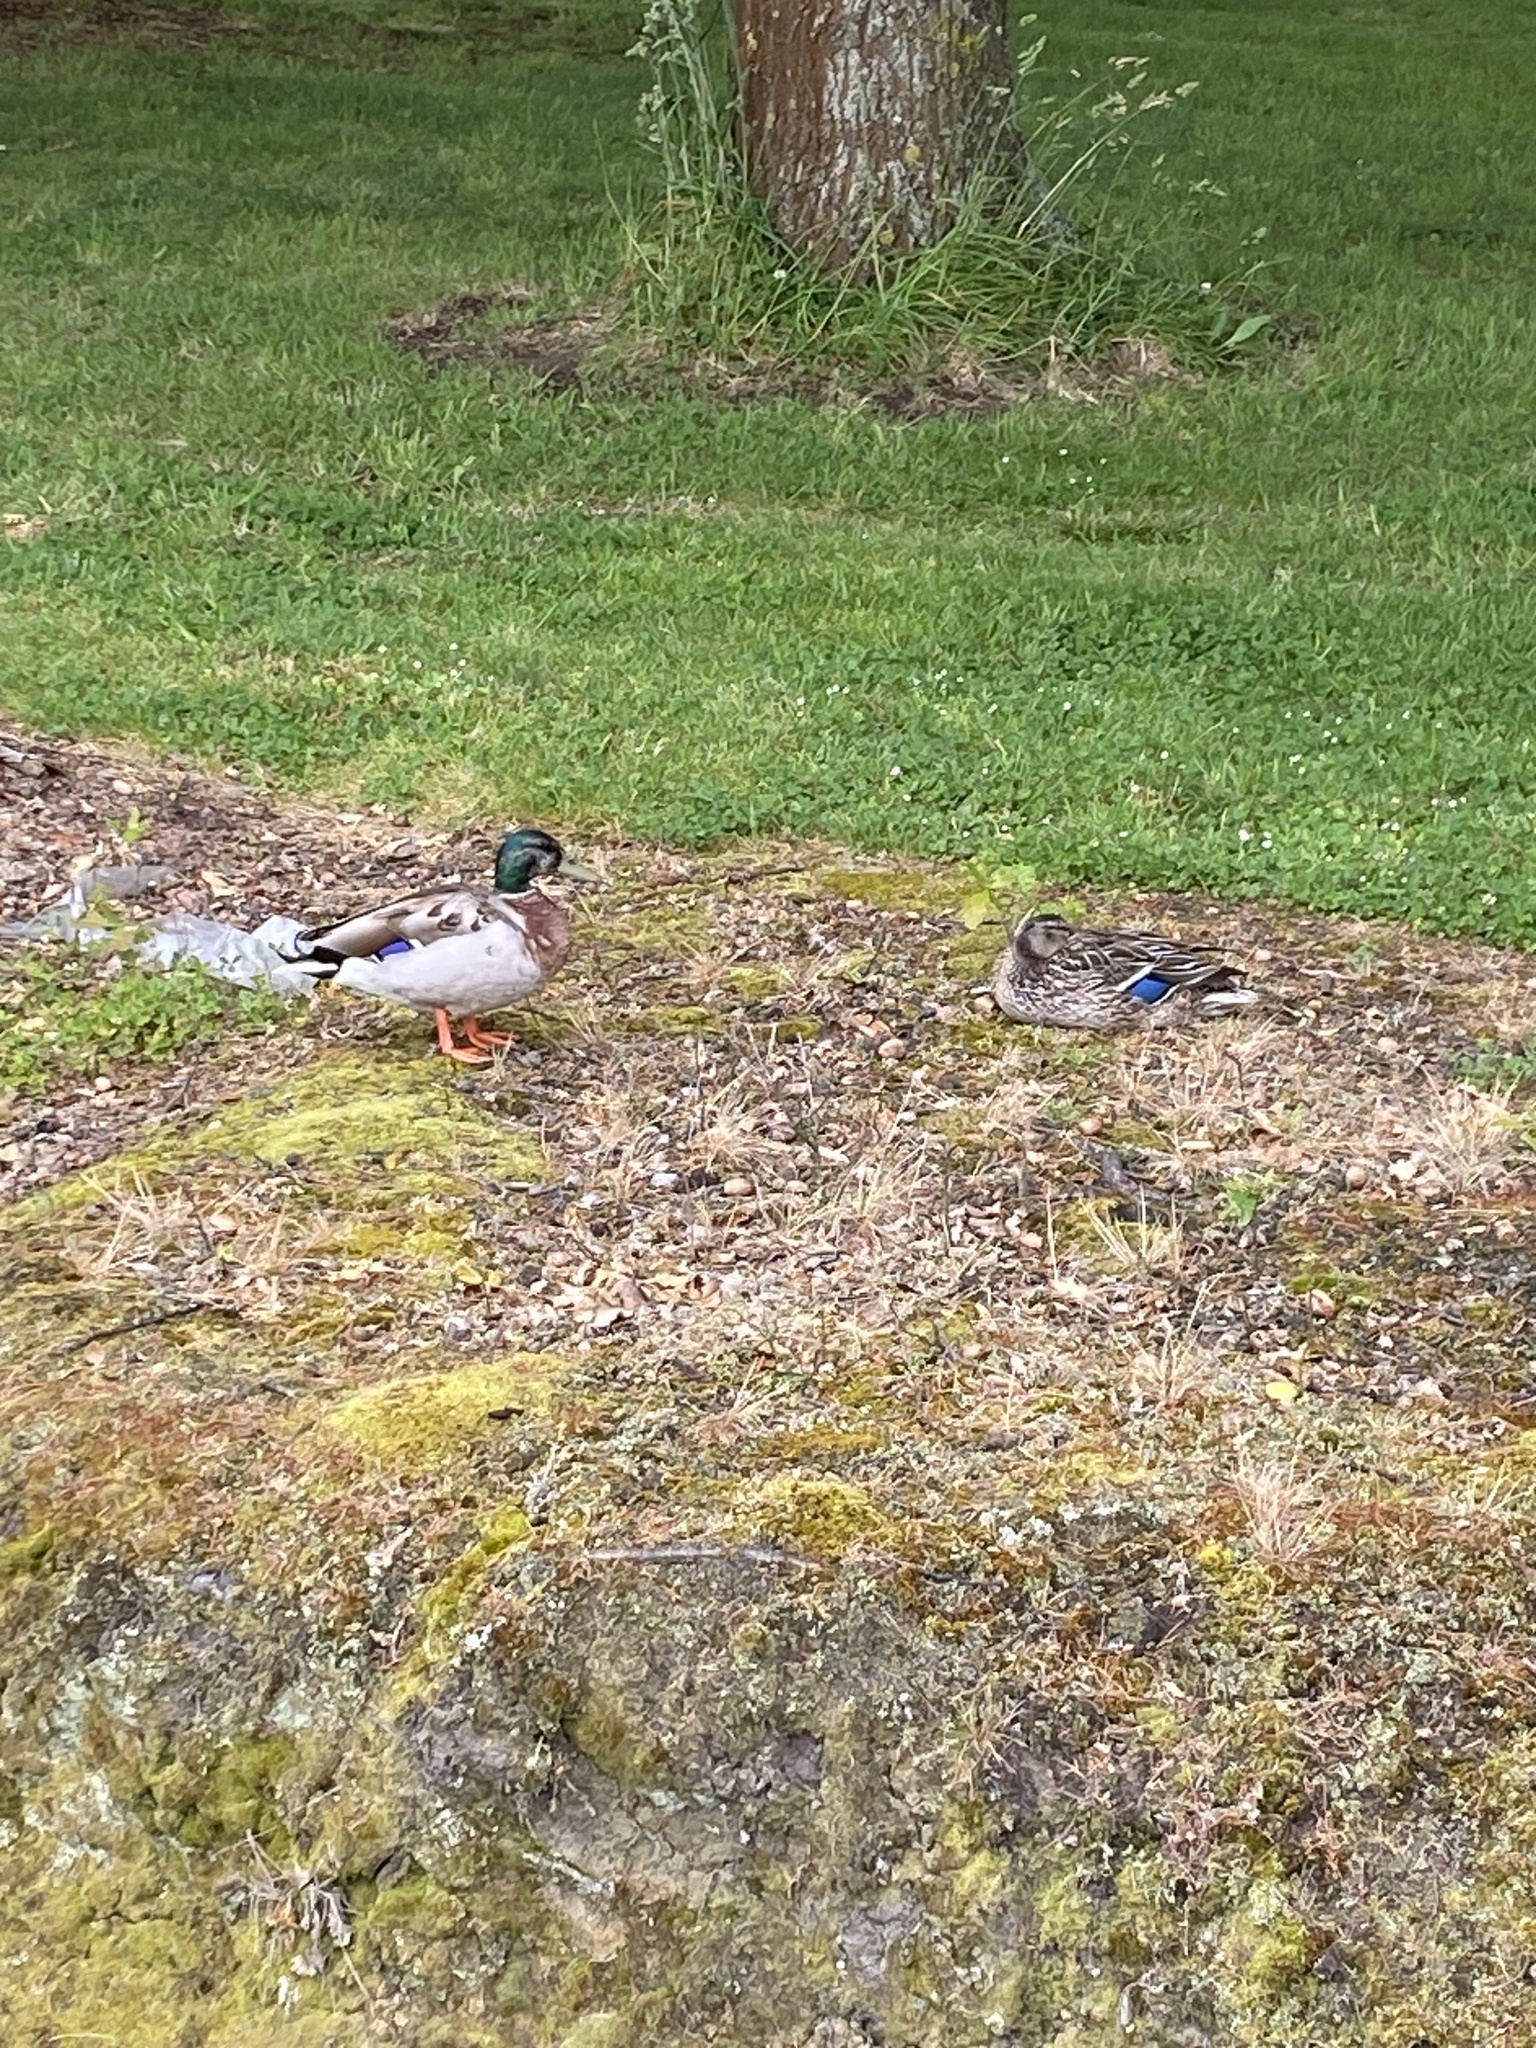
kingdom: Animalia
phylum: Chordata
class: Aves
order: Anseriformes
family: Anatidae
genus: Anas
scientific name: Anas
